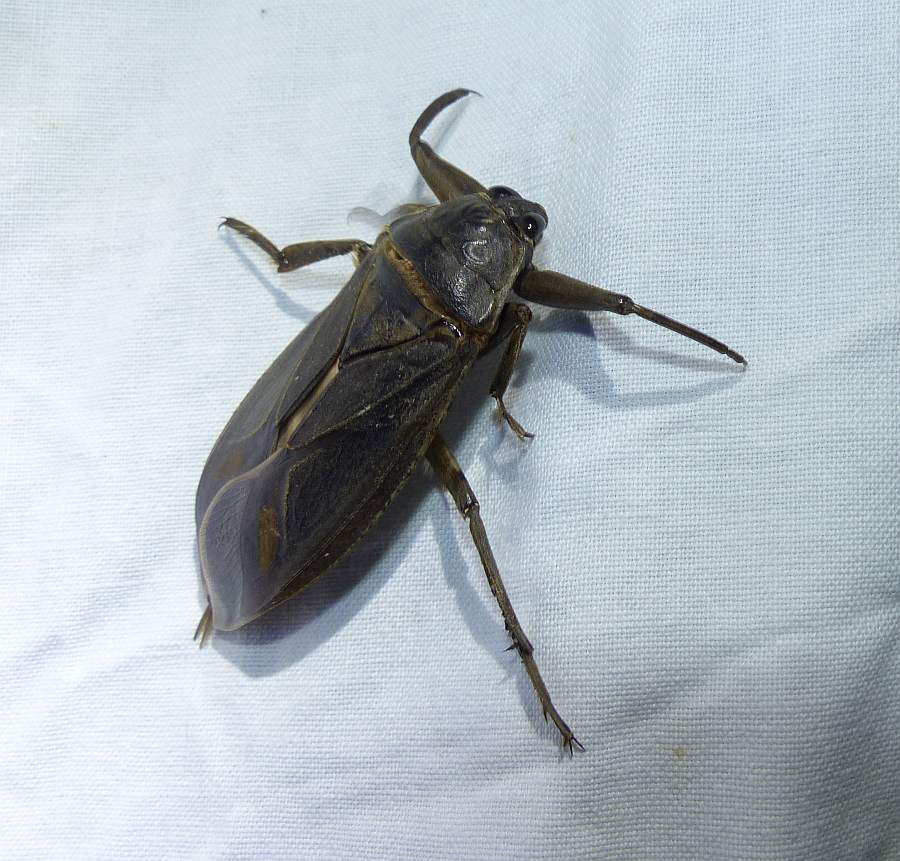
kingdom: Animalia
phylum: Arthropoda
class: Insecta
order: Hemiptera
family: Belostomatidae
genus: Lethocerus
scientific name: Lethocerus americanus
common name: Giant water bug
